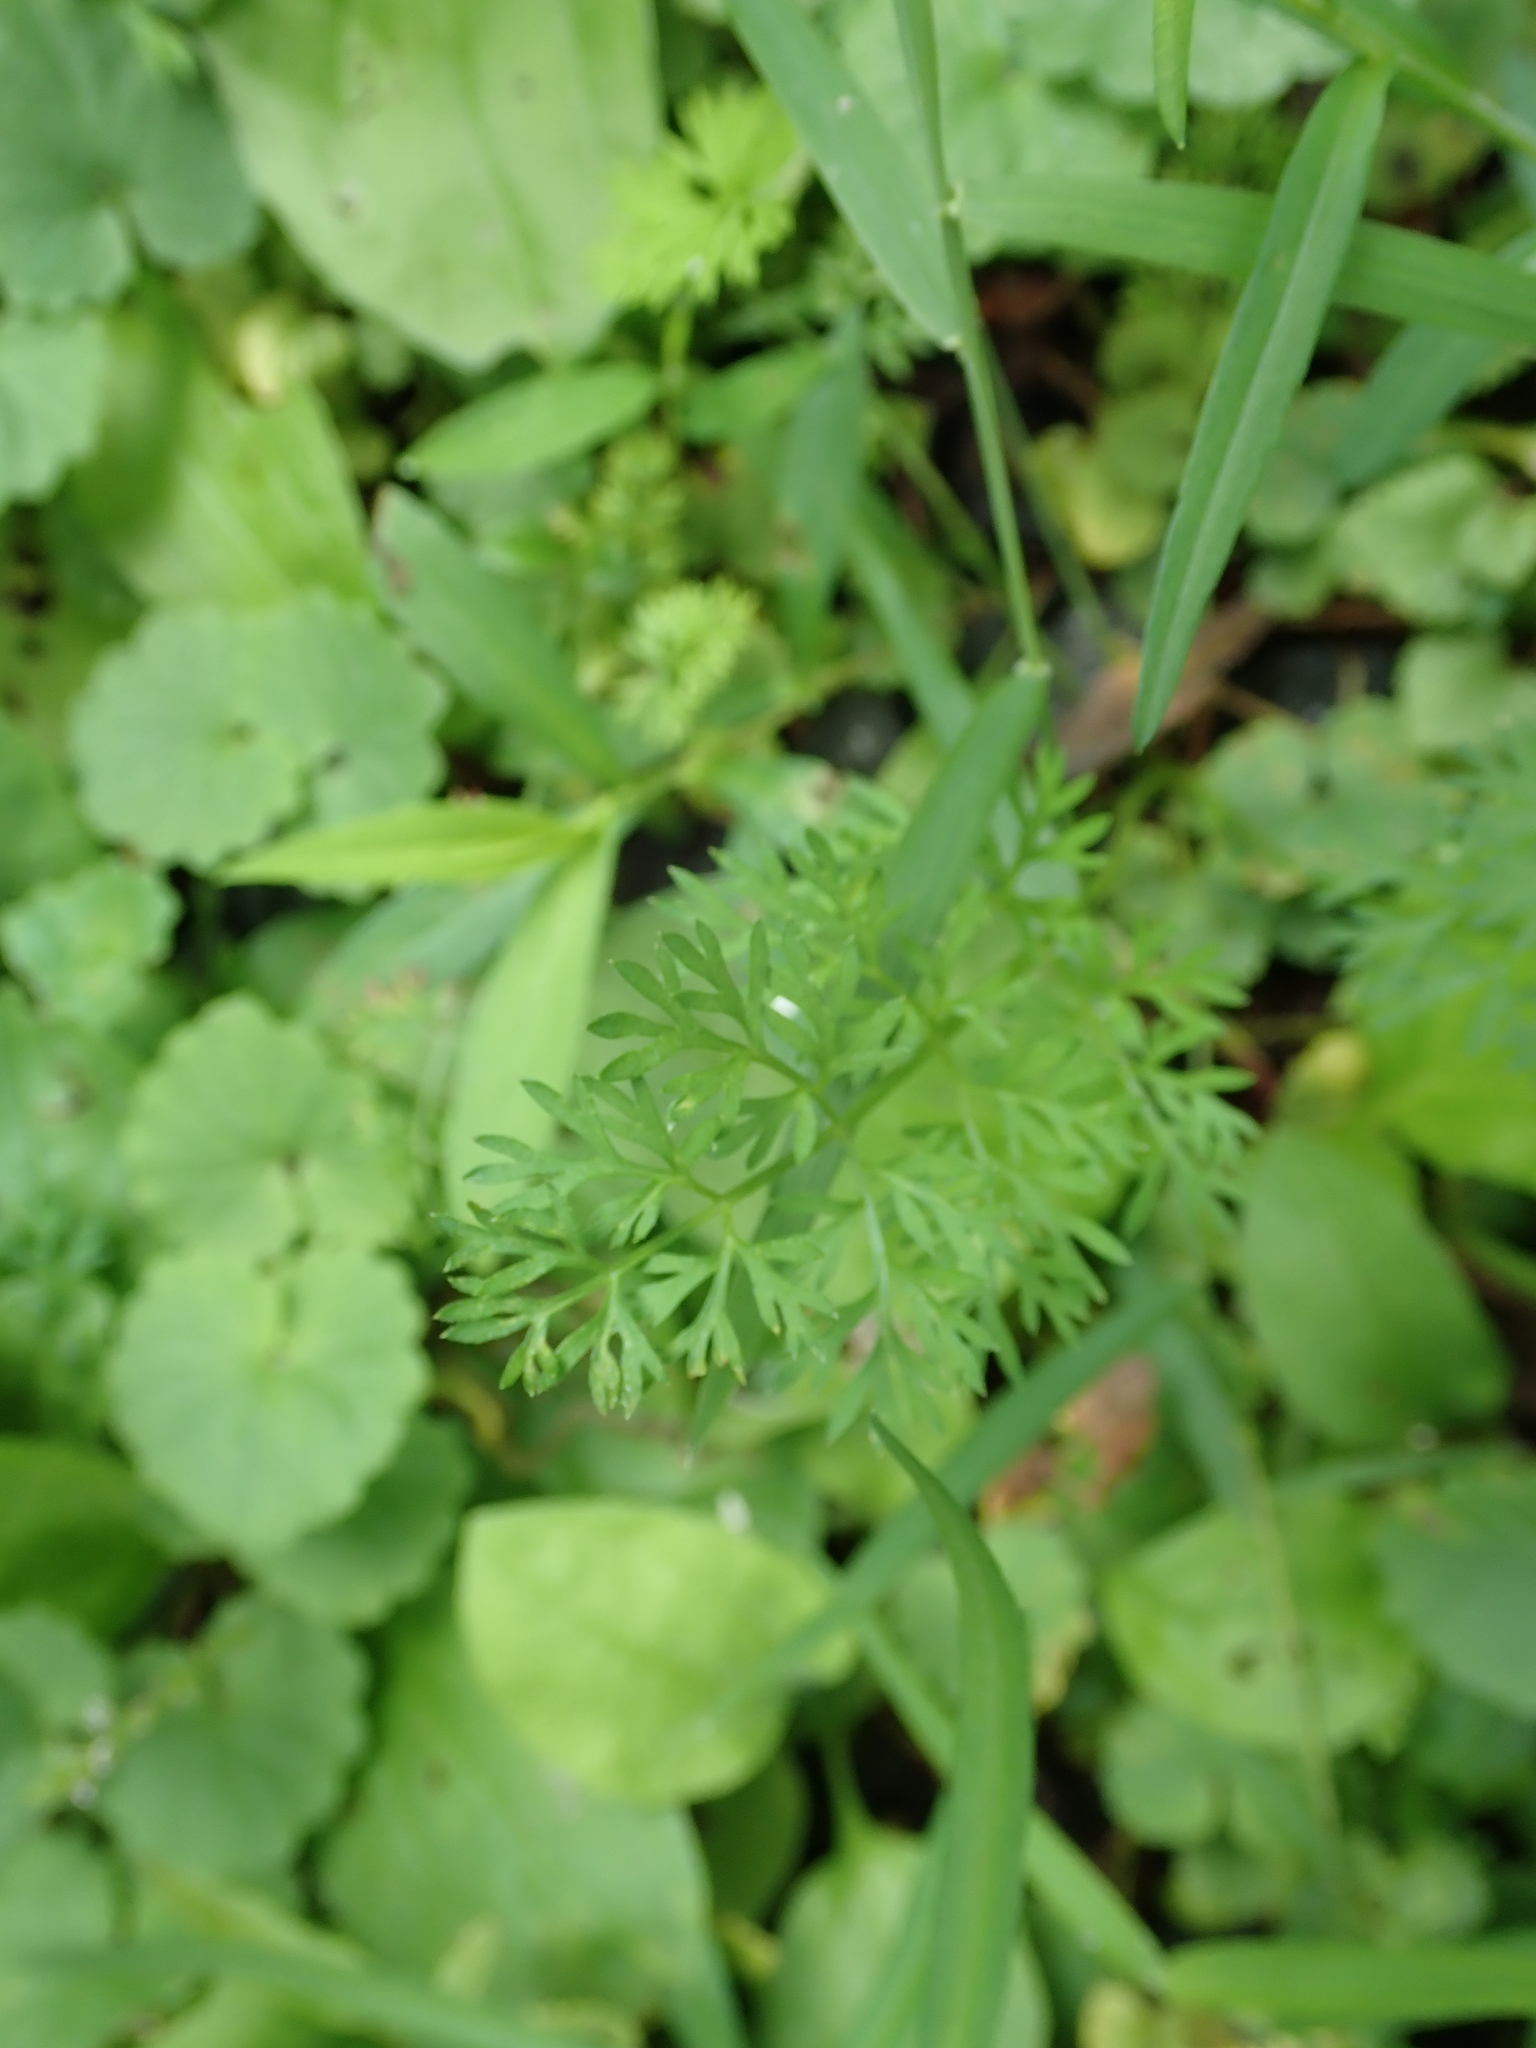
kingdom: Plantae
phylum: Tracheophyta
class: Magnoliopsida
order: Apiales
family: Apiaceae
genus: Daucus
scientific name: Daucus carota
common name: Wild carrot
